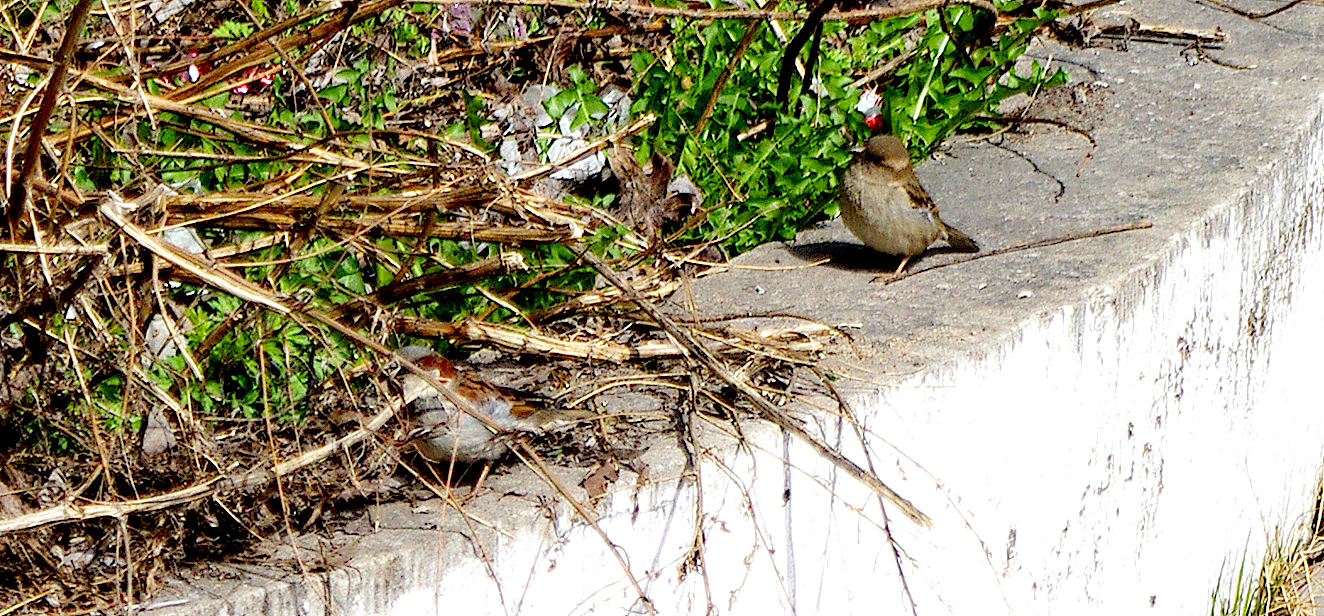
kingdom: Animalia
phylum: Chordata
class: Aves
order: Passeriformes
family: Passeridae
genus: Passer
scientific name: Passer domesticus
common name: House sparrow
